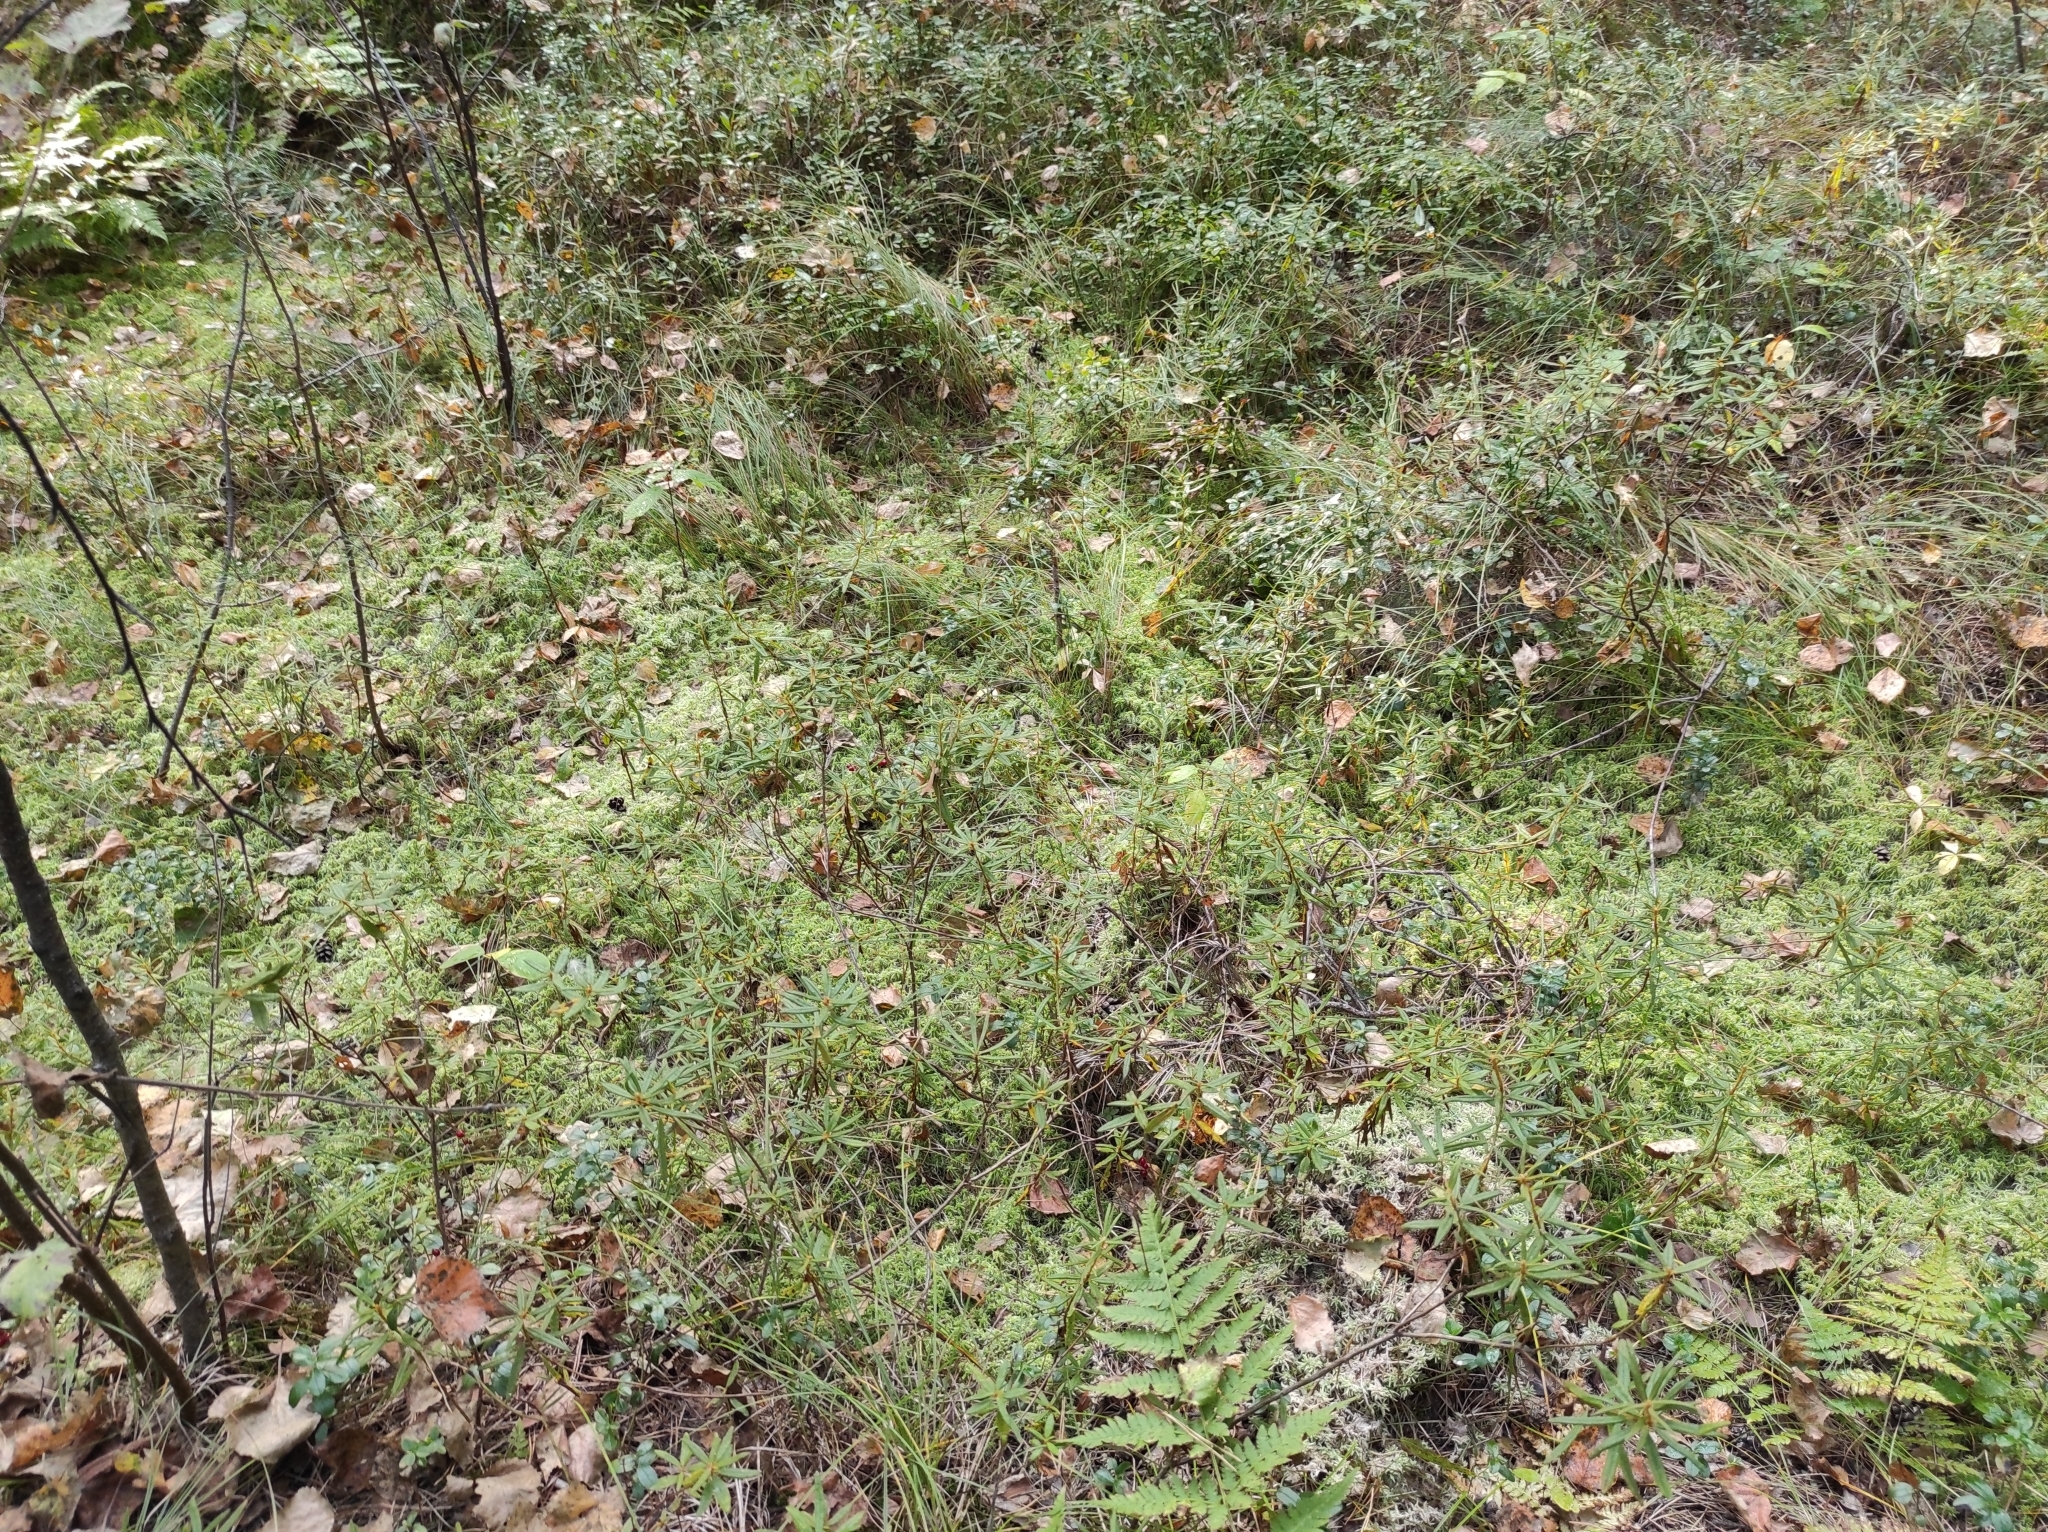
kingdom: Plantae
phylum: Tracheophyta
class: Magnoliopsida
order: Ericales
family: Ericaceae
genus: Rhododendron
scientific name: Rhododendron tomentosum
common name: Marsh labrador tea
